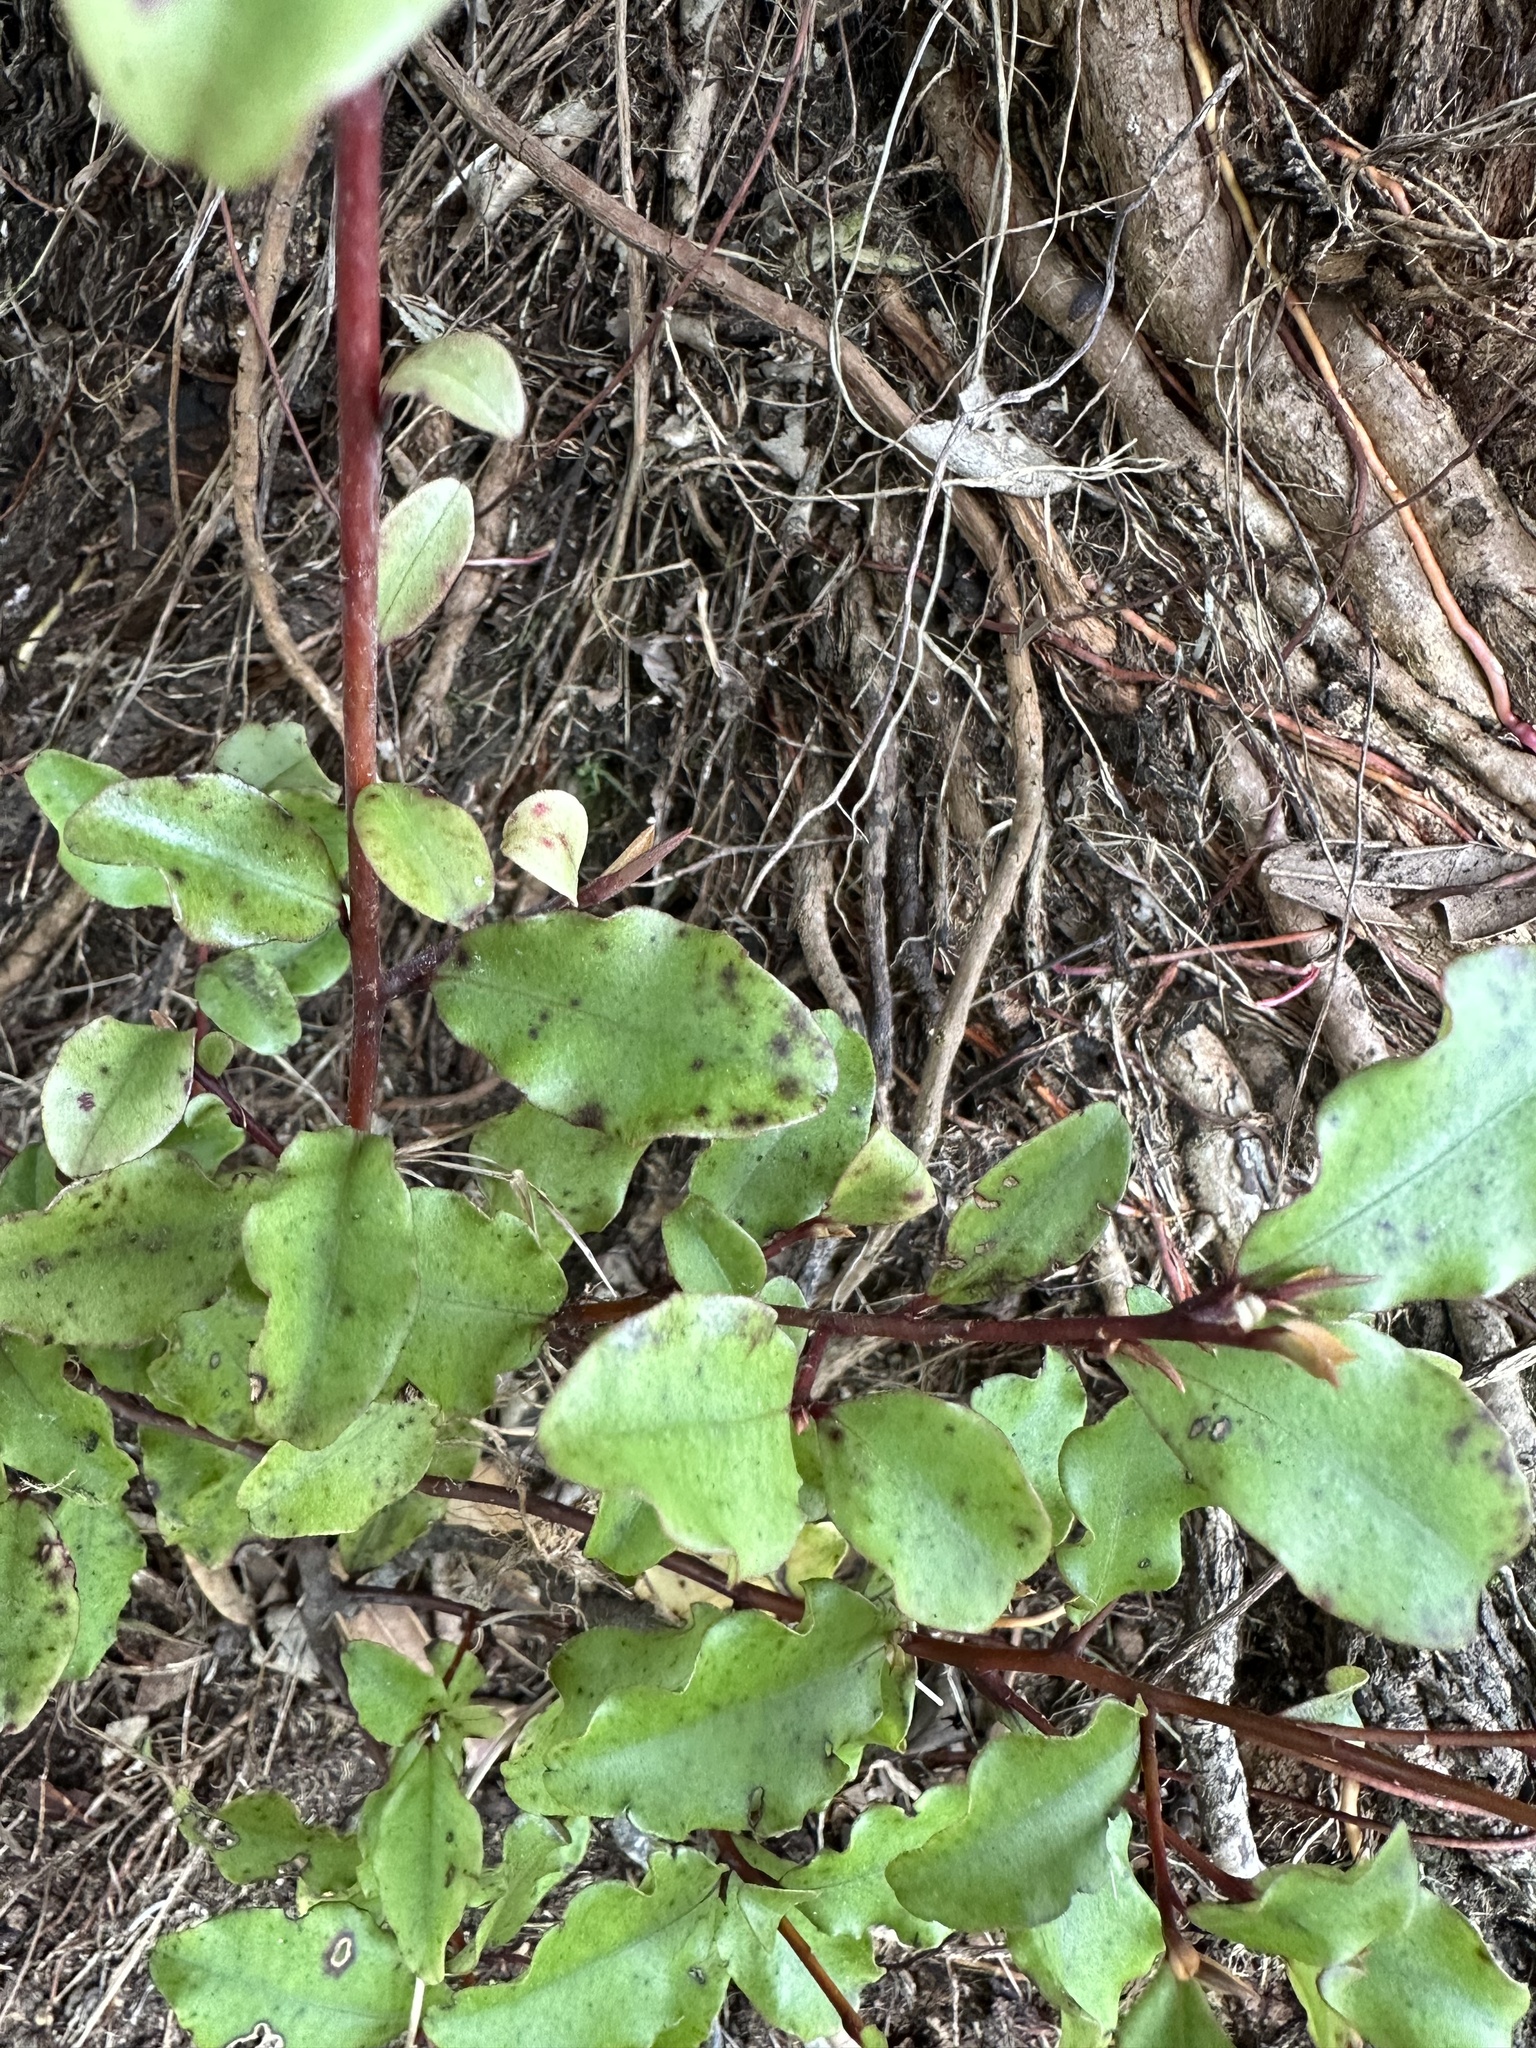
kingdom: Plantae
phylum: Tracheophyta
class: Magnoliopsida
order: Ericales
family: Primulaceae
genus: Myrsine
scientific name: Myrsine australis
